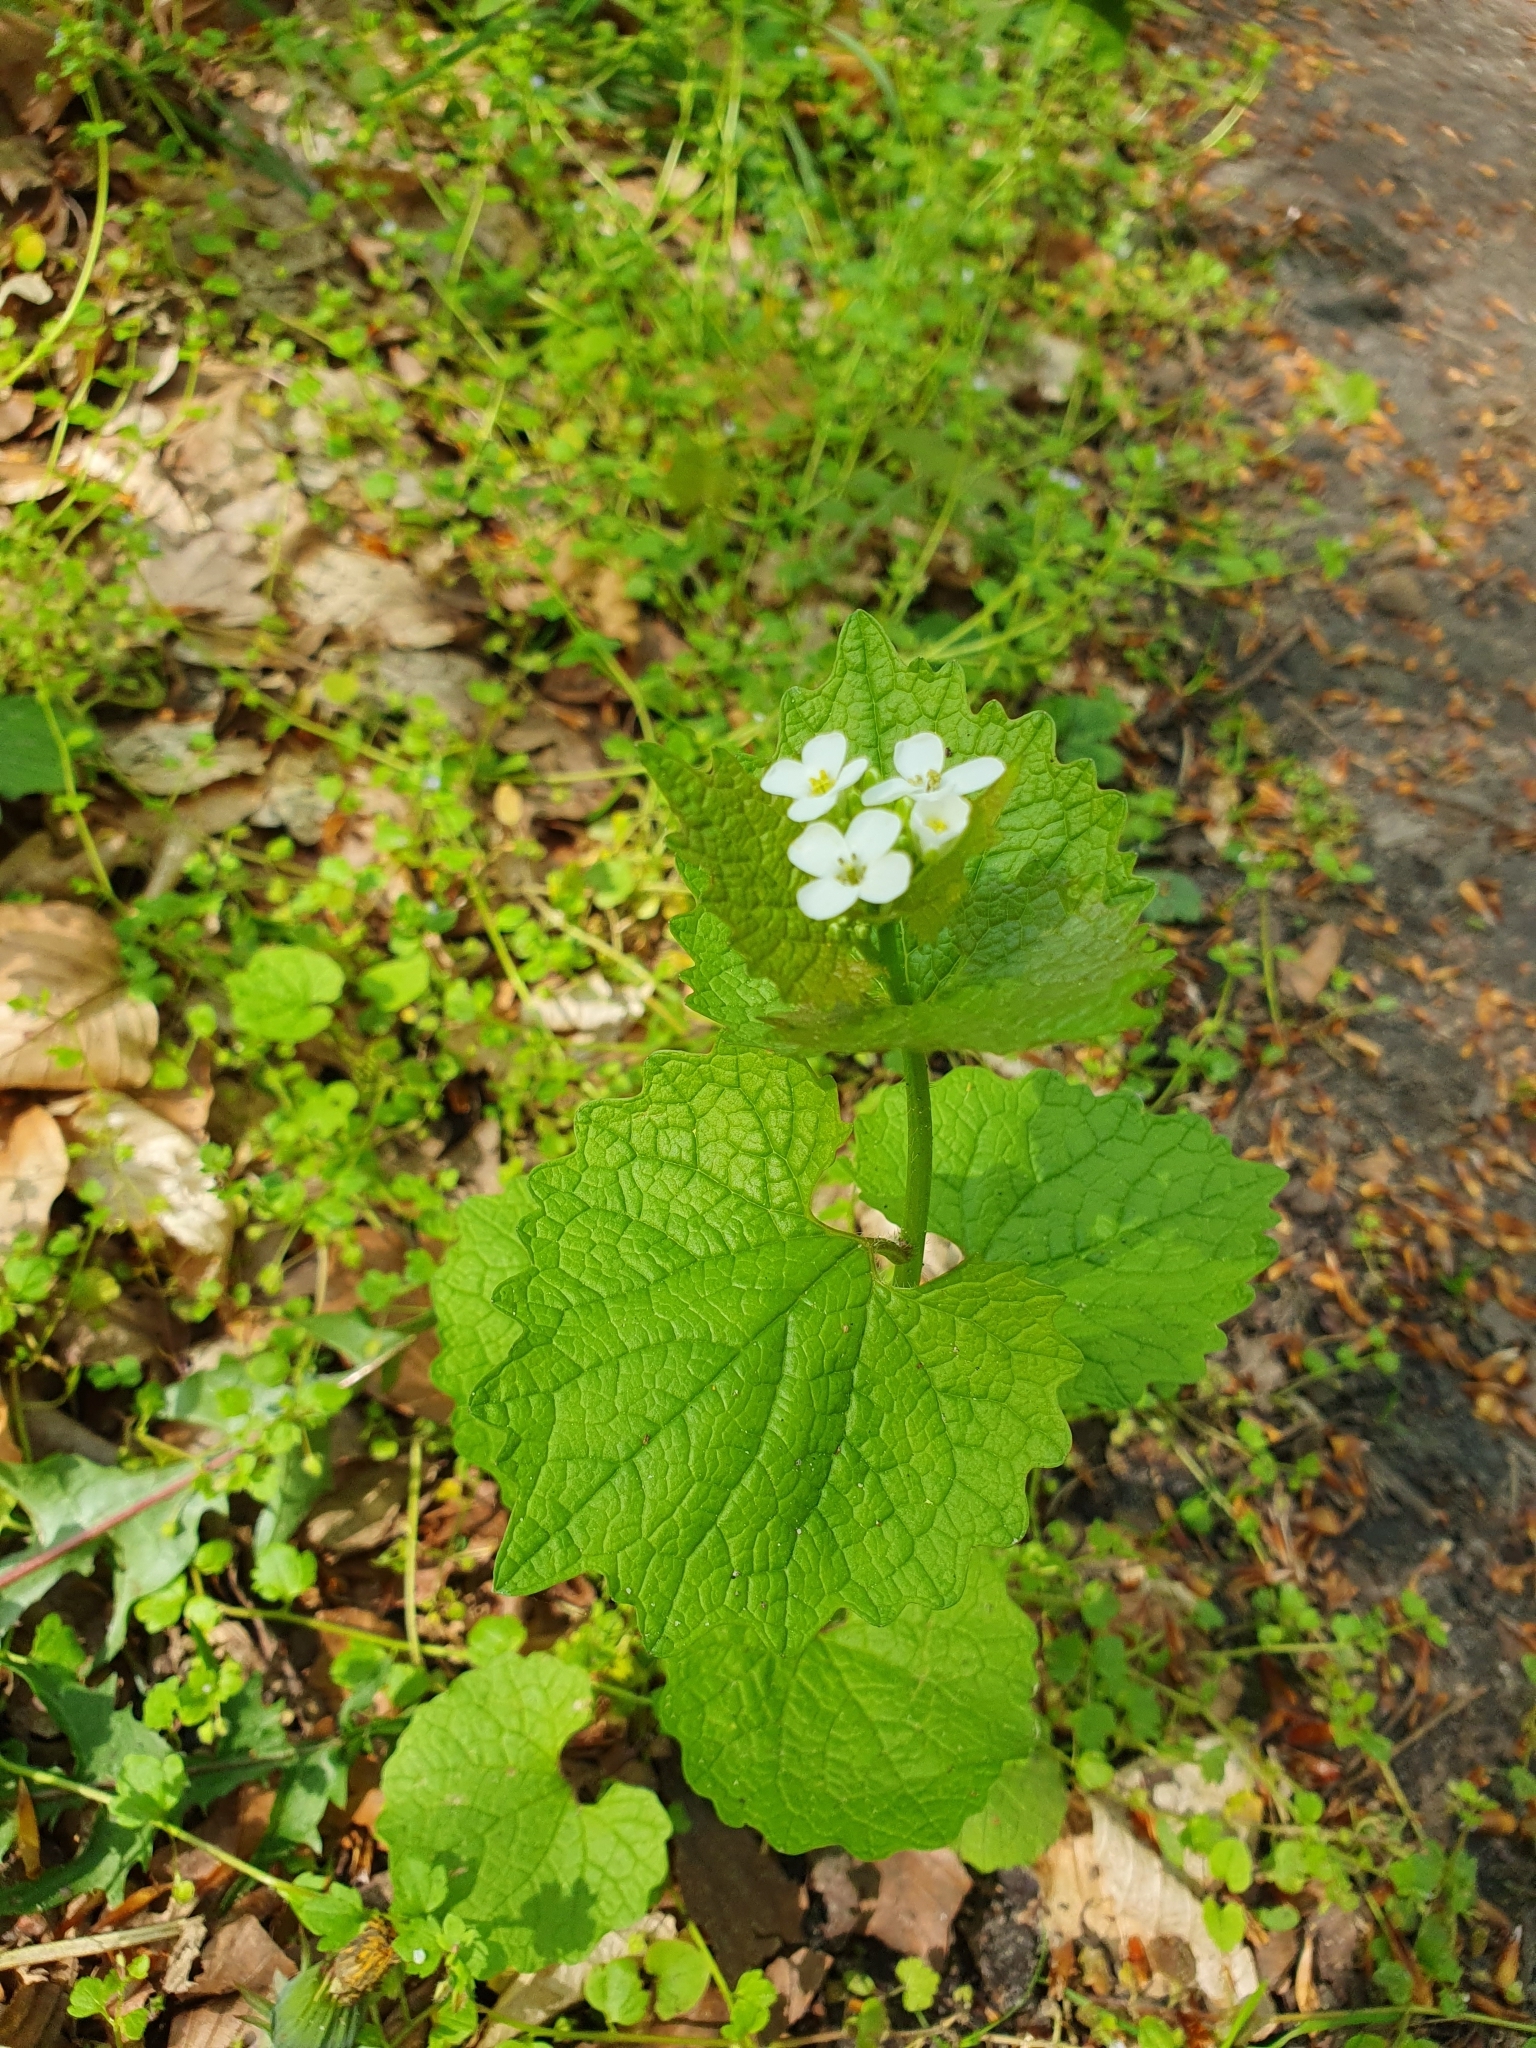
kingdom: Plantae
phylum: Tracheophyta
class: Magnoliopsida
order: Brassicales
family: Brassicaceae
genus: Alliaria
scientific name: Alliaria petiolata
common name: Garlic mustard
